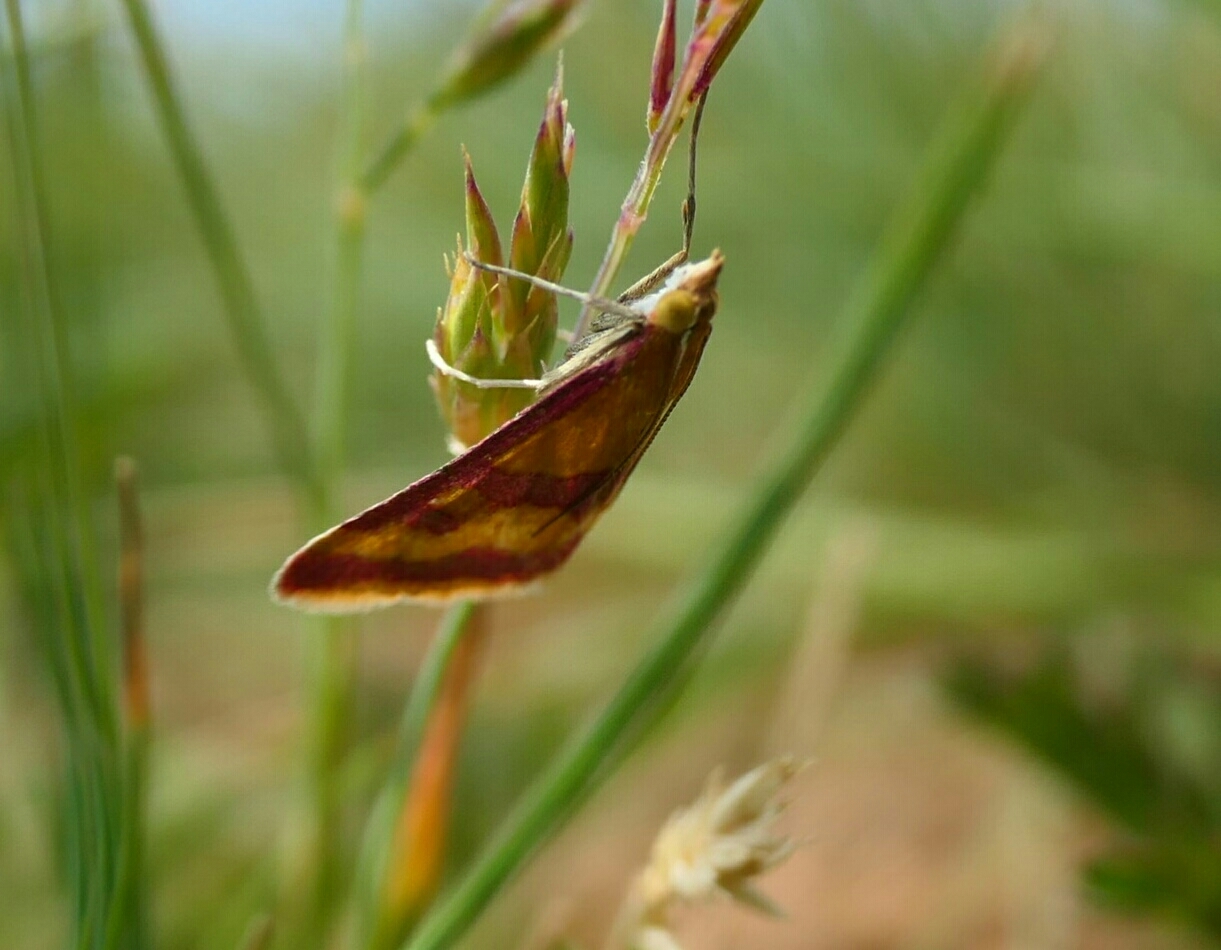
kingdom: Animalia
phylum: Arthropoda
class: Insecta
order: Lepidoptera
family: Crambidae
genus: Pyrausta
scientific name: Pyrausta sanguinalis
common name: Scarce crimson and gold
